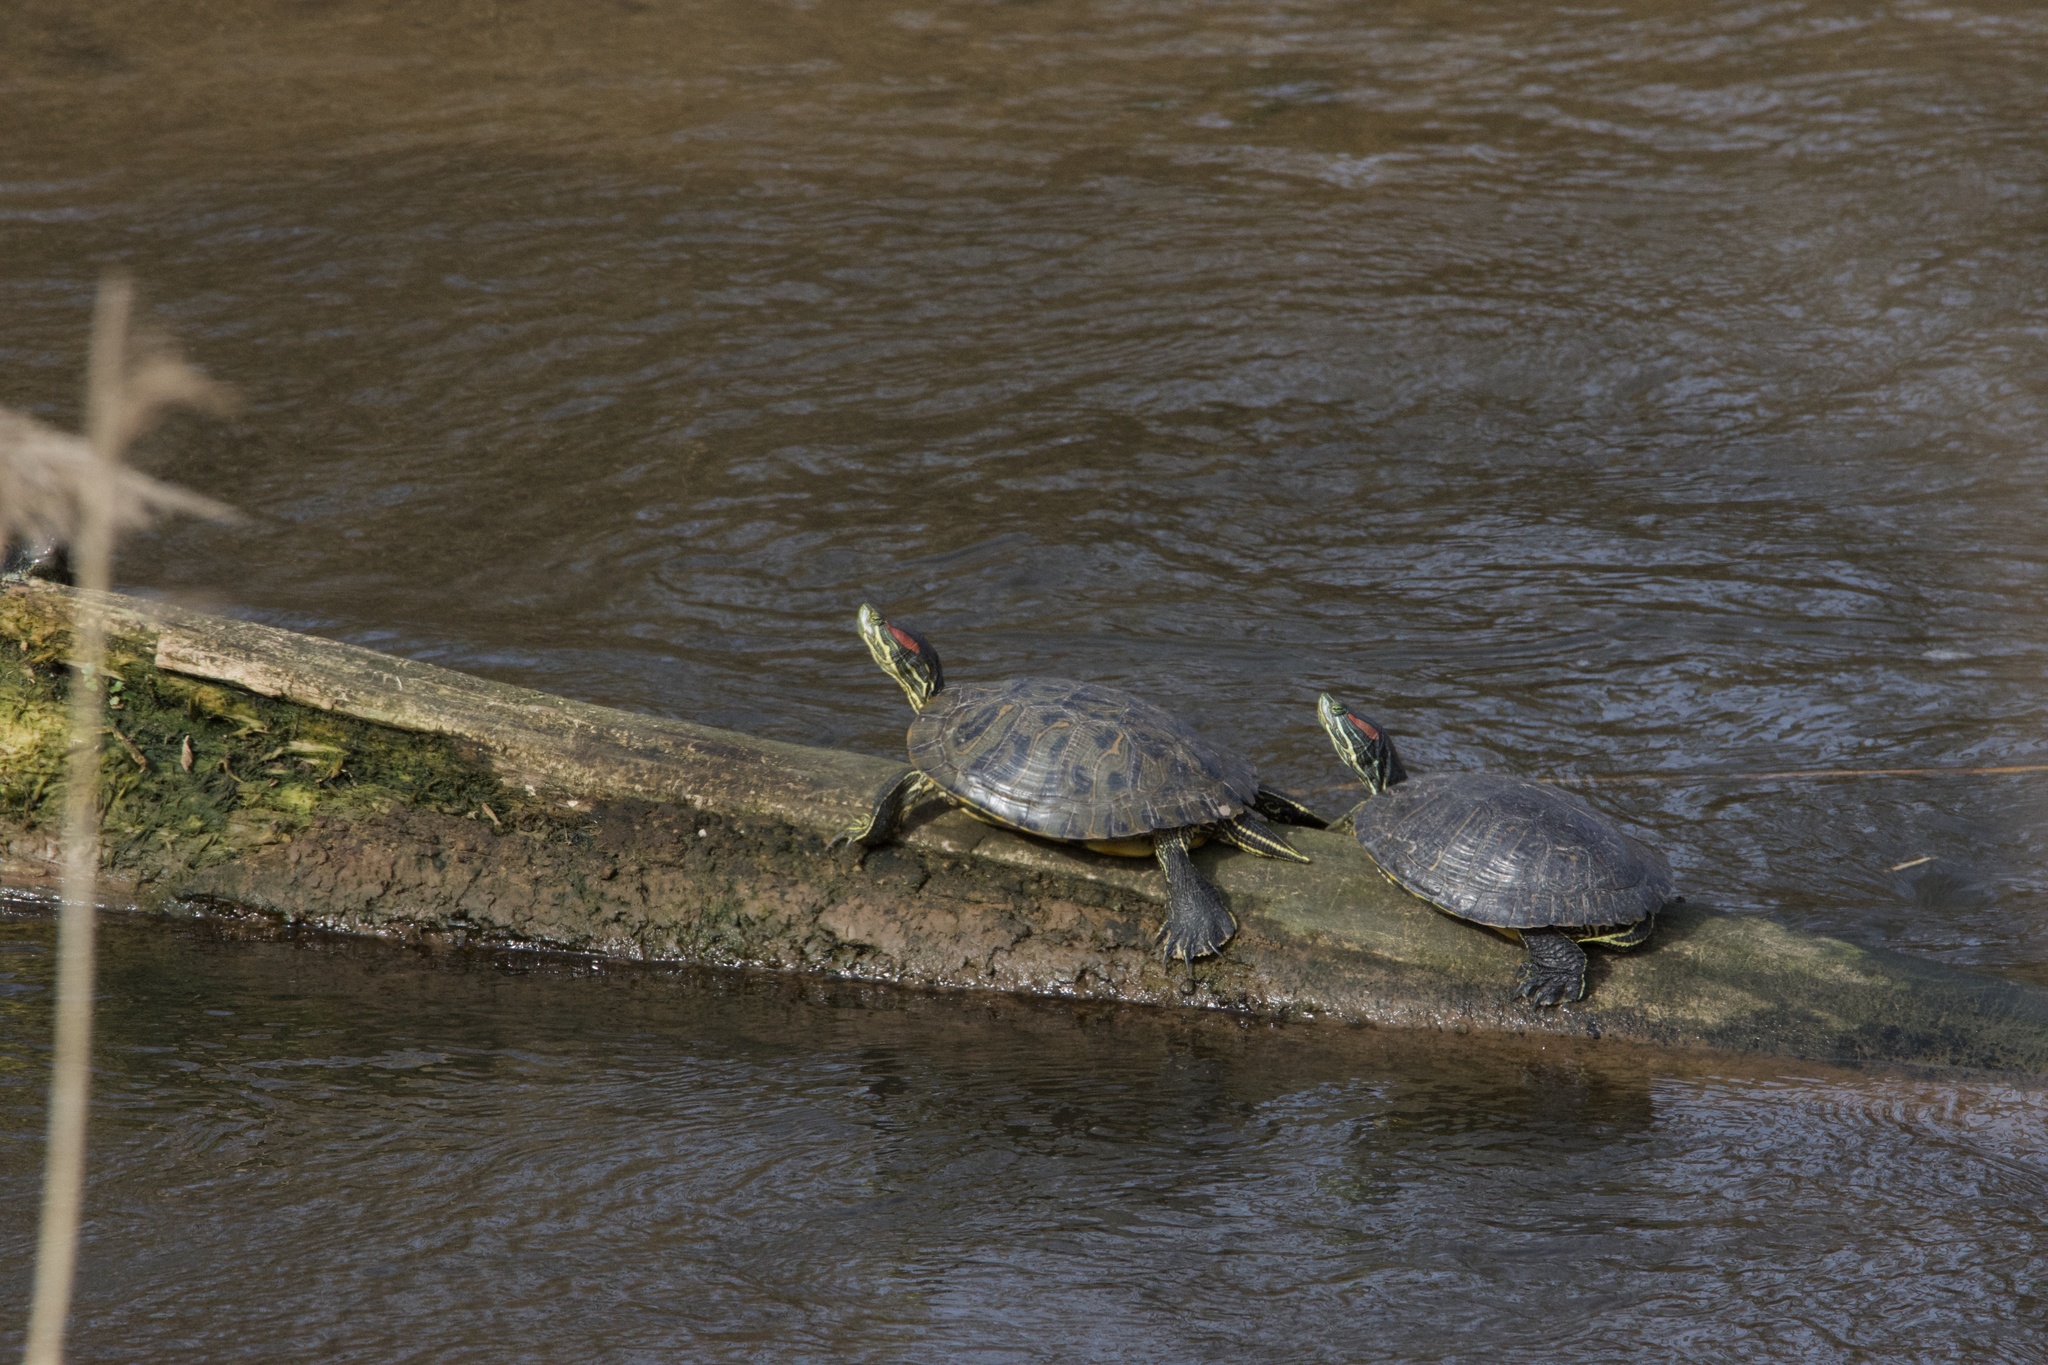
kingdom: Animalia
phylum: Chordata
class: Testudines
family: Emydidae
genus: Trachemys
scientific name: Trachemys scripta
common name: Slider
